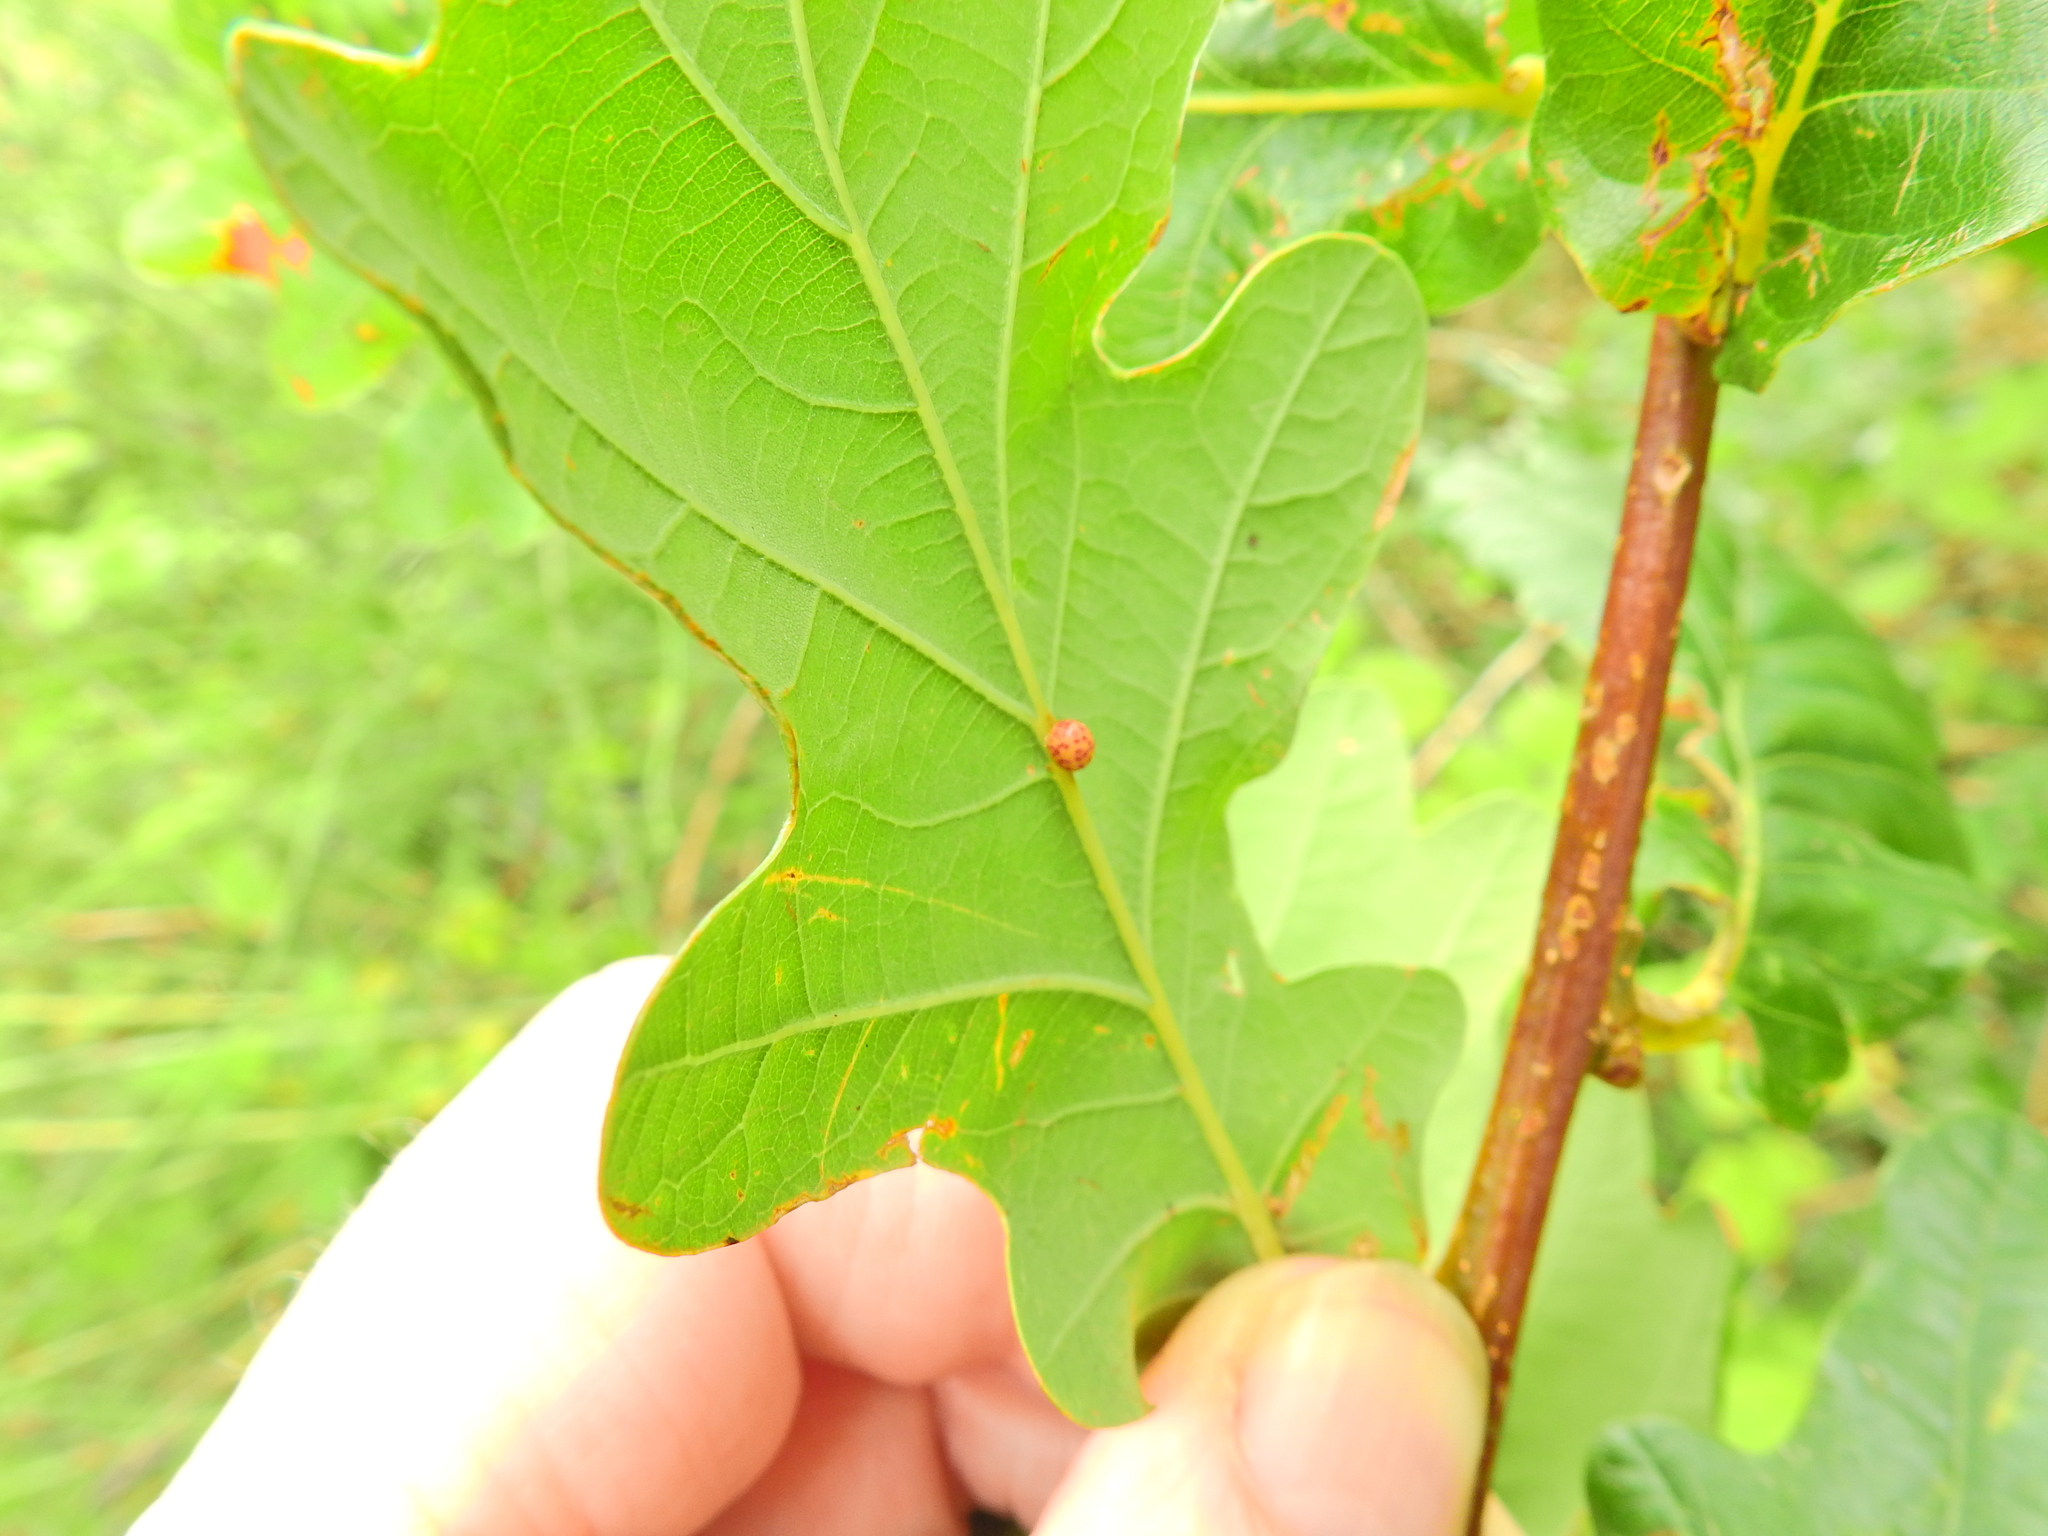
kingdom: Animalia
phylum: Arthropoda
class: Insecta
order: Hymenoptera
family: Cynipidae
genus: Neuroterus
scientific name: Neuroterus anthracinus
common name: Oyster gall
